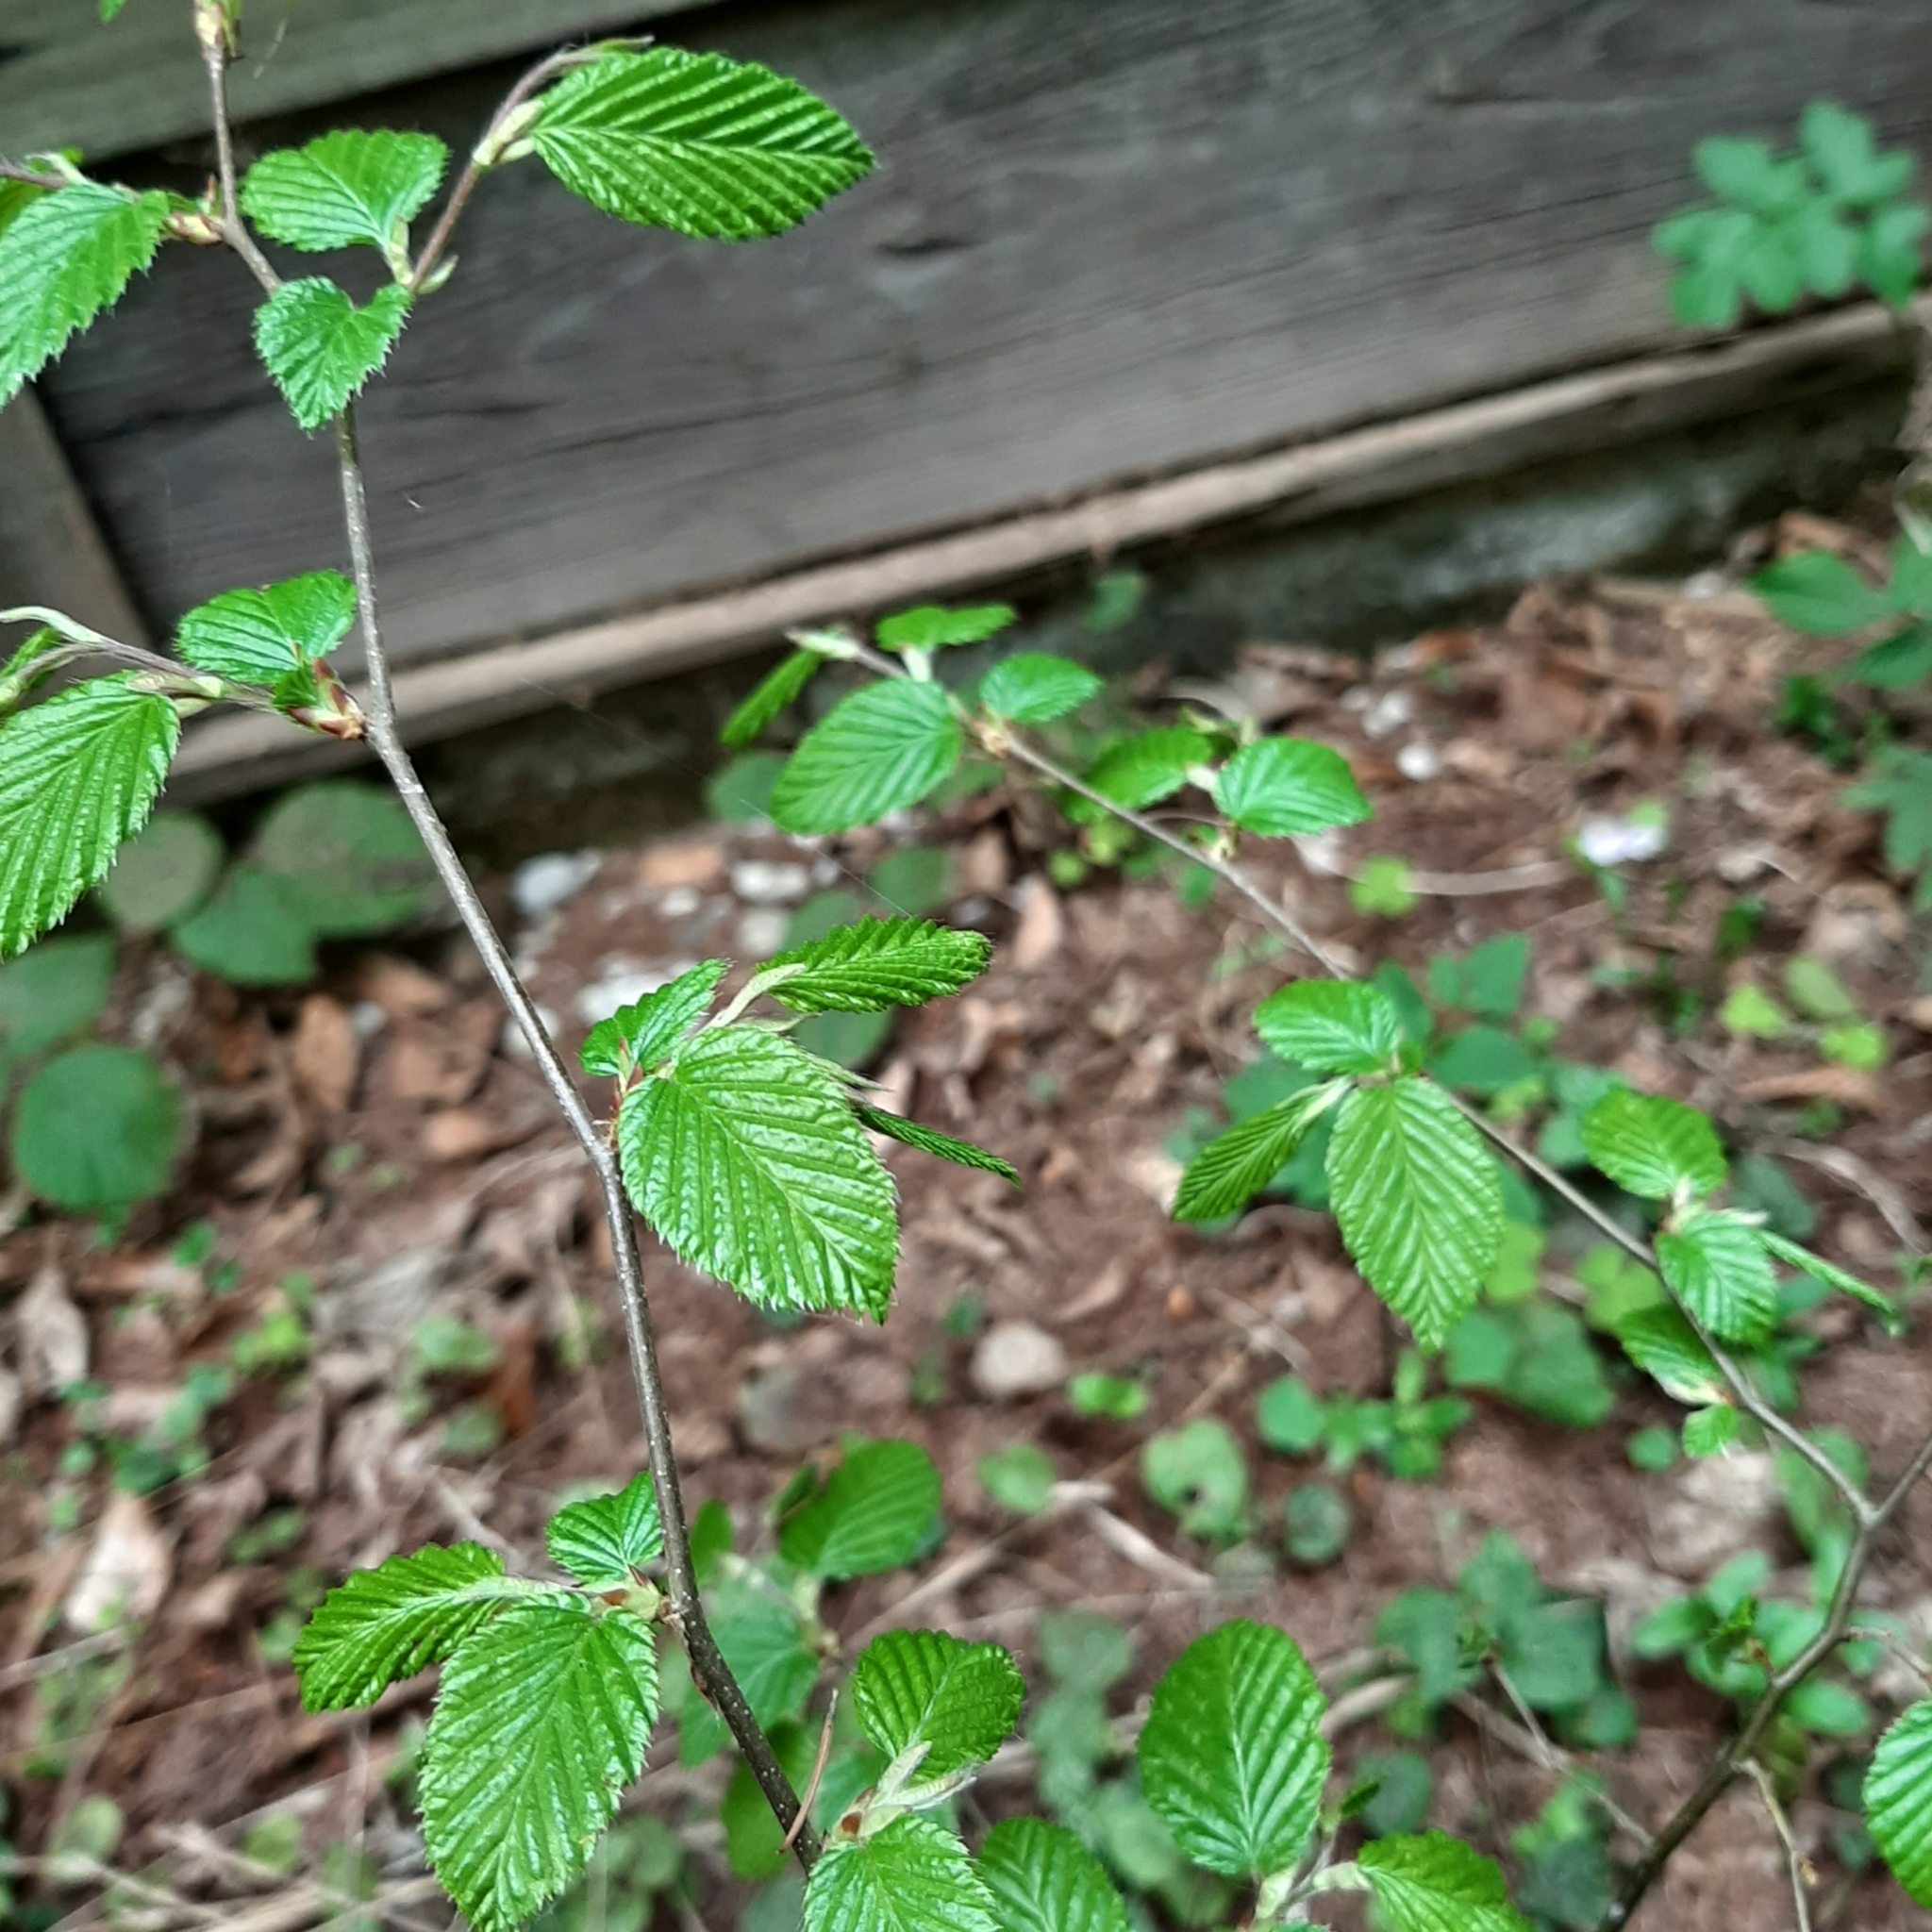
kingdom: Plantae
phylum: Tracheophyta
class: Magnoliopsida
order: Fagales
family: Betulaceae
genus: Carpinus
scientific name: Carpinus betulus
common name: Hornbeam
